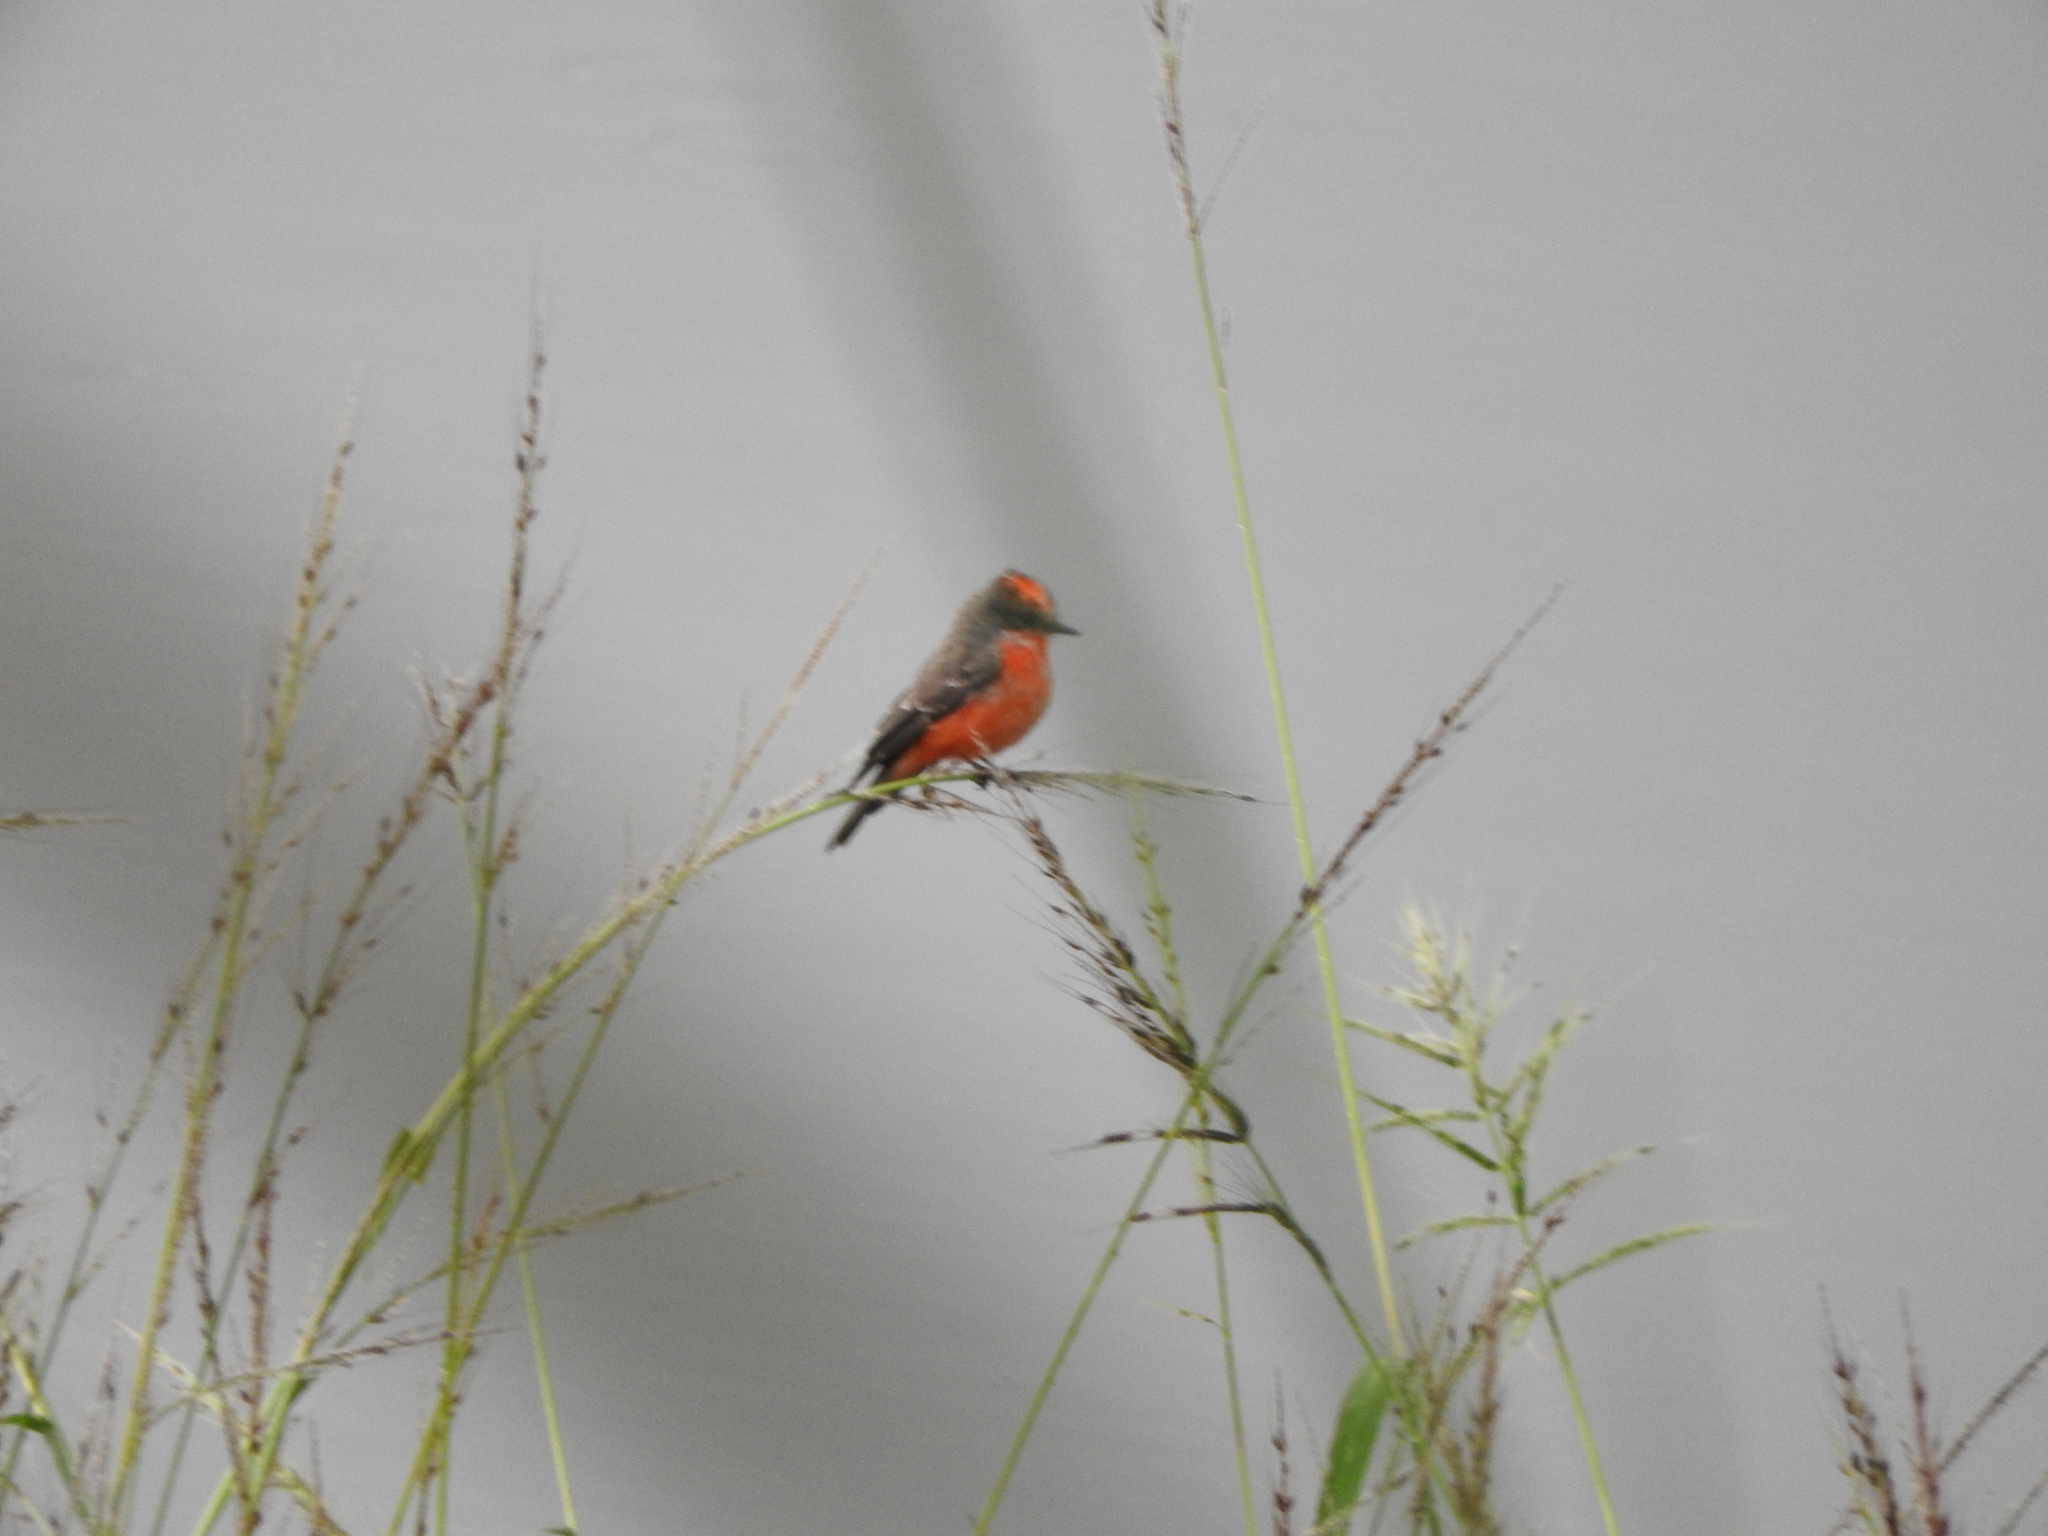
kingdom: Animalia
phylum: Chordata
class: Aves
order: Passeriformes
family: Tyrannidae
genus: Pyrocephalus
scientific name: Pyrocephalus rubinus
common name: Vermilion flycatcher
